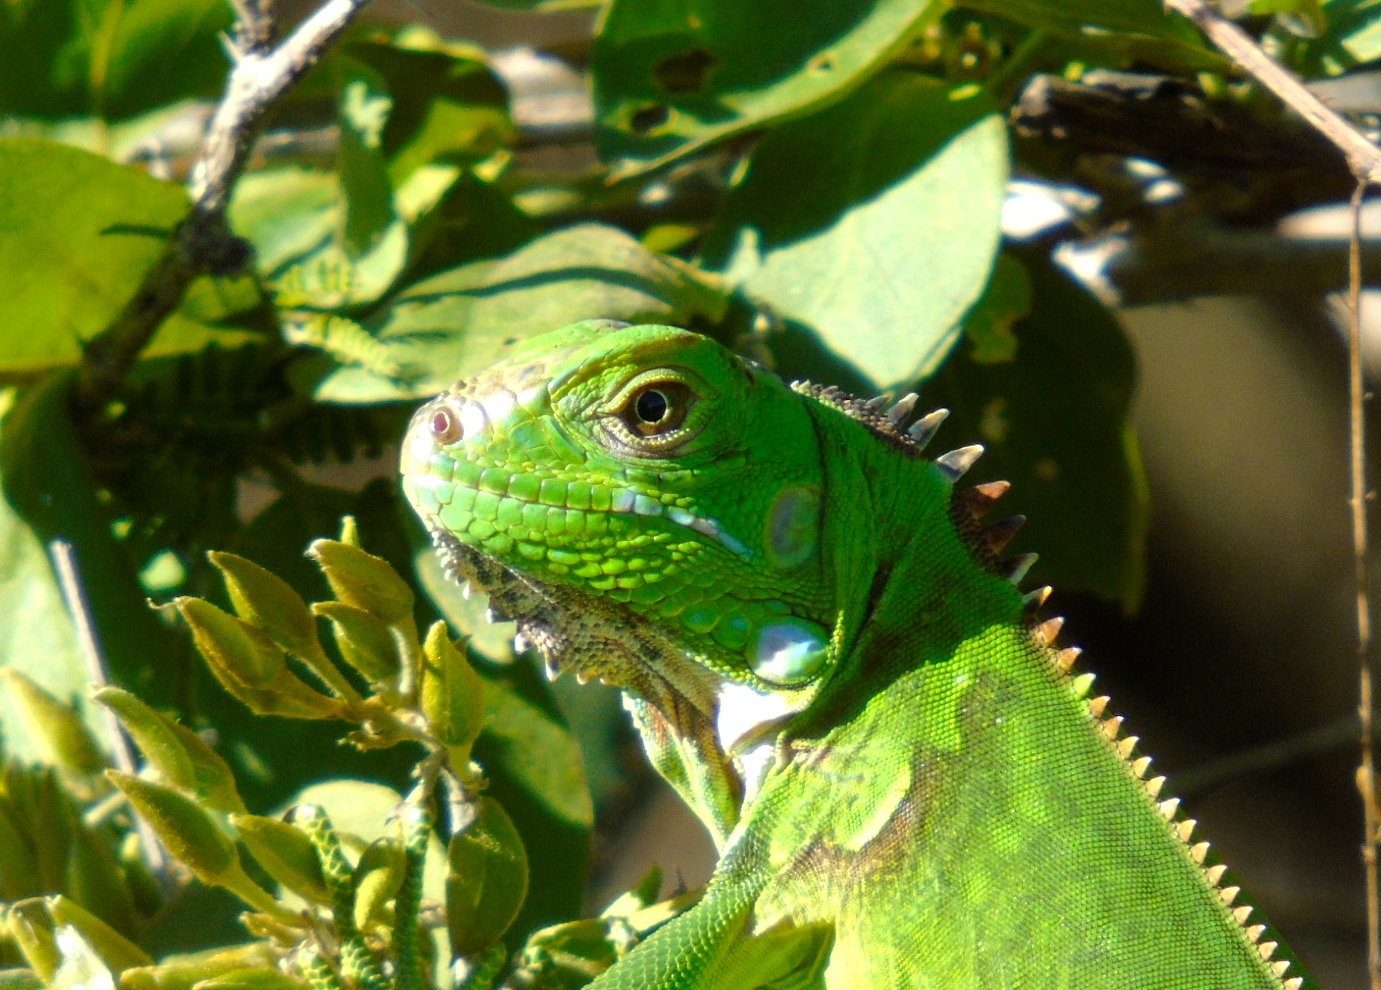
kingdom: Animalia
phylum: Chordata
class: Squamata
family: Iguanidae
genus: Iguana
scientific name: Iguana iguana
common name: Green iguana
